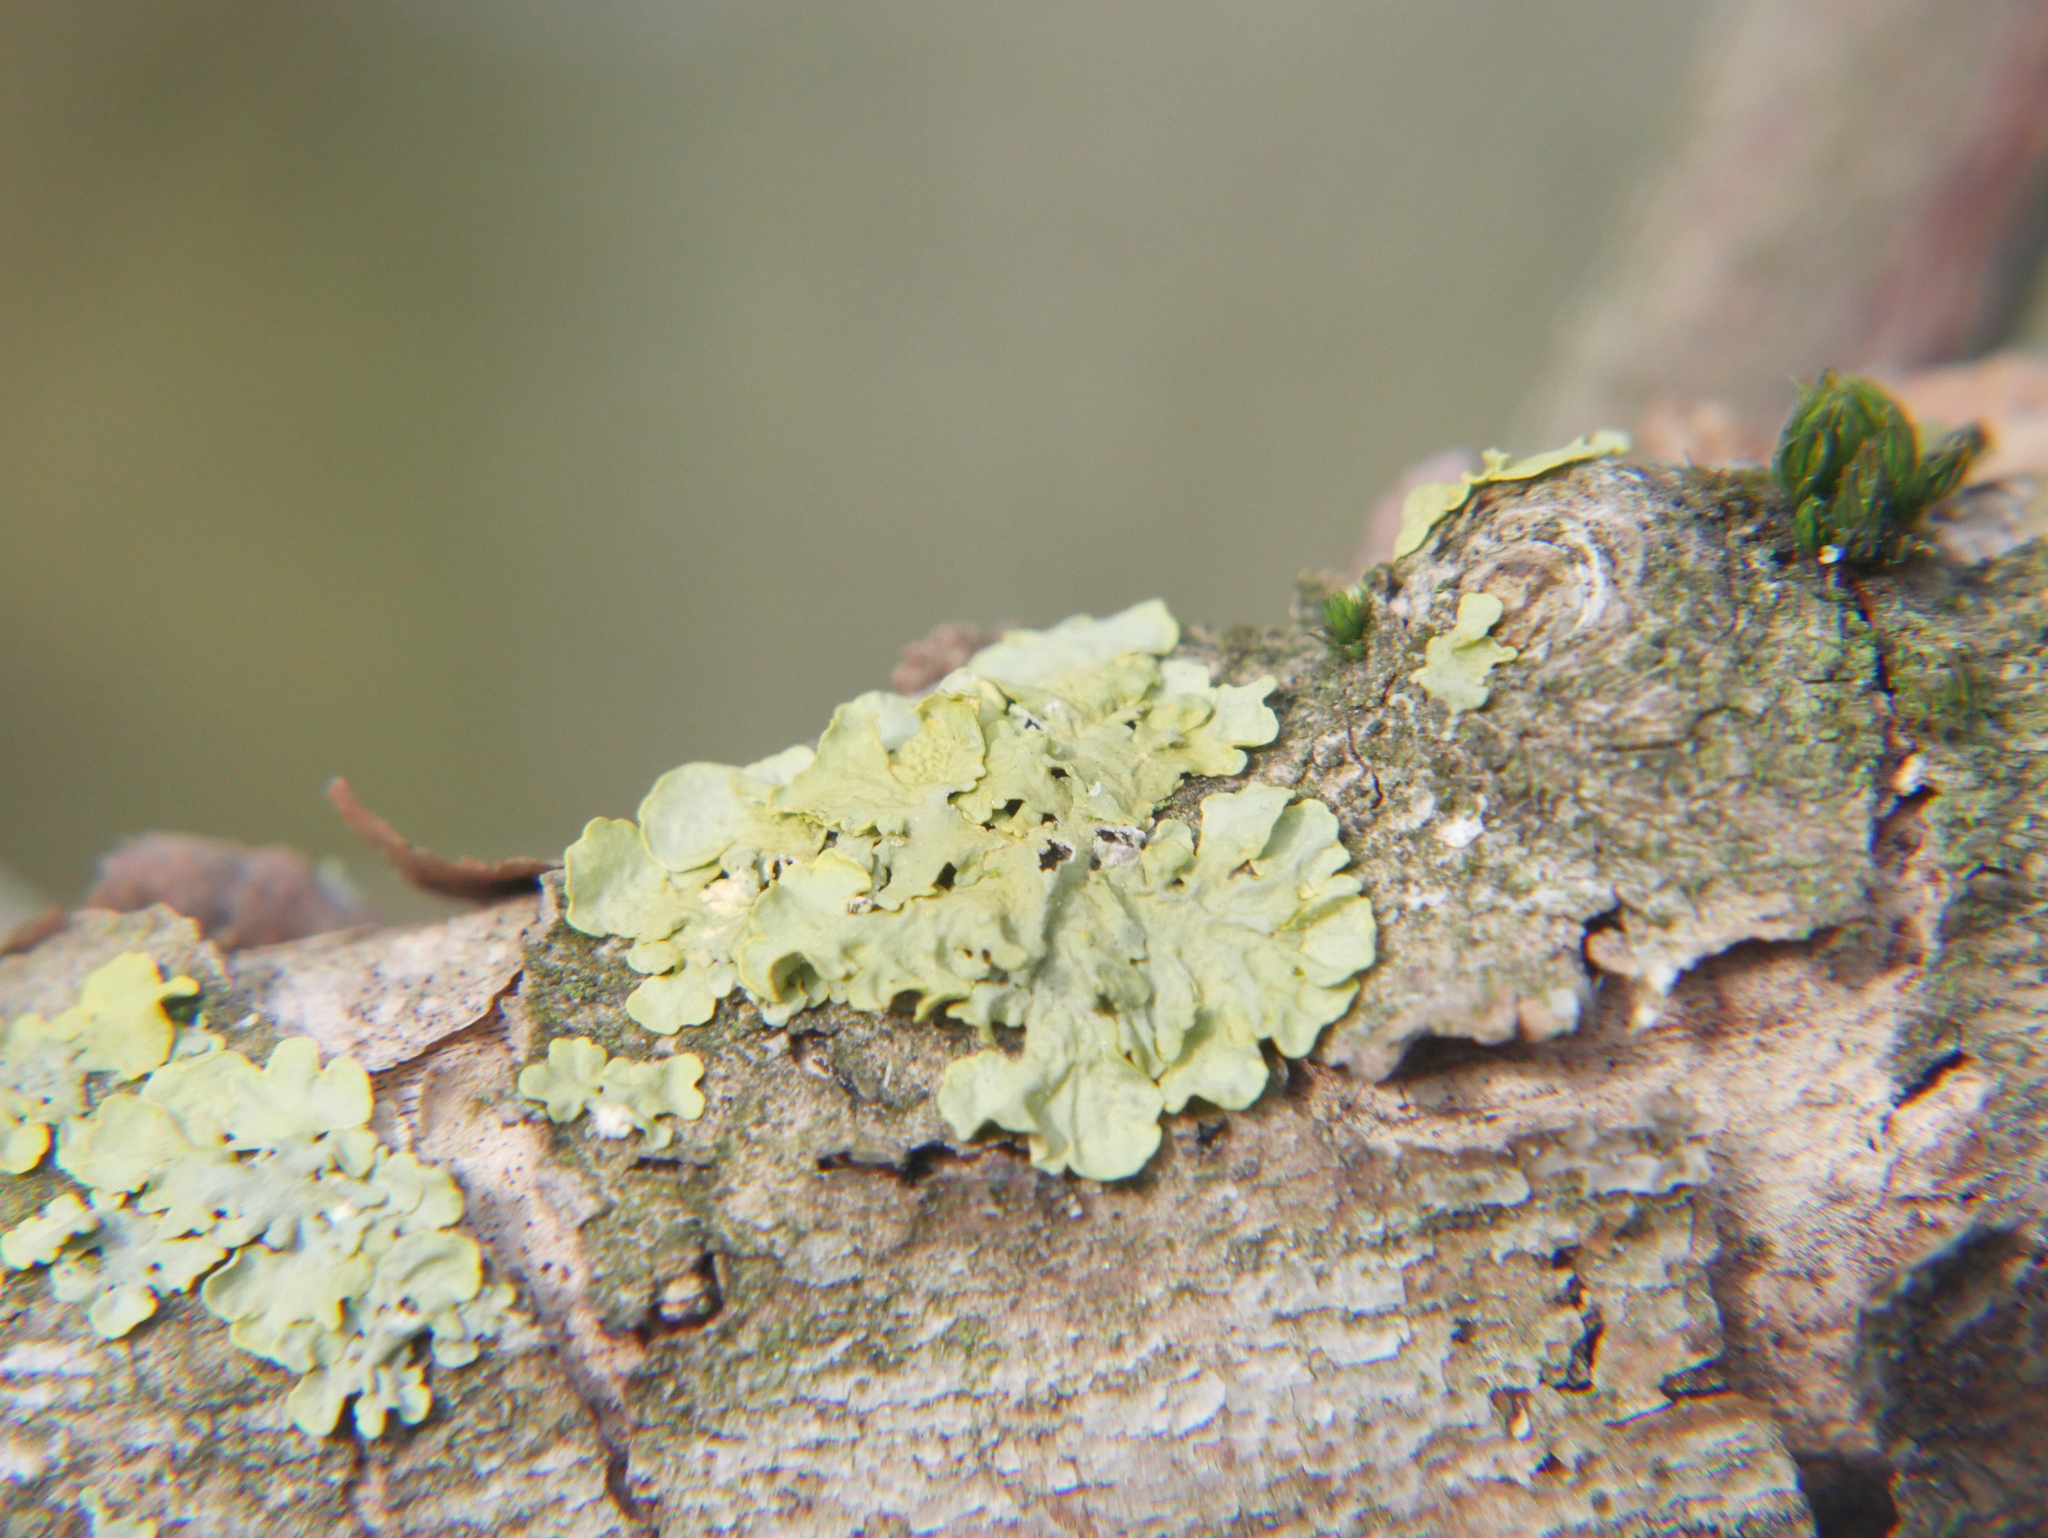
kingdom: Fungi
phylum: Ascomycota
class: Lecanoromycetes
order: Teloschistales
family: Teloschistaceae
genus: Xanthoria
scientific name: Xanthoria parietina
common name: Common orange lichen
